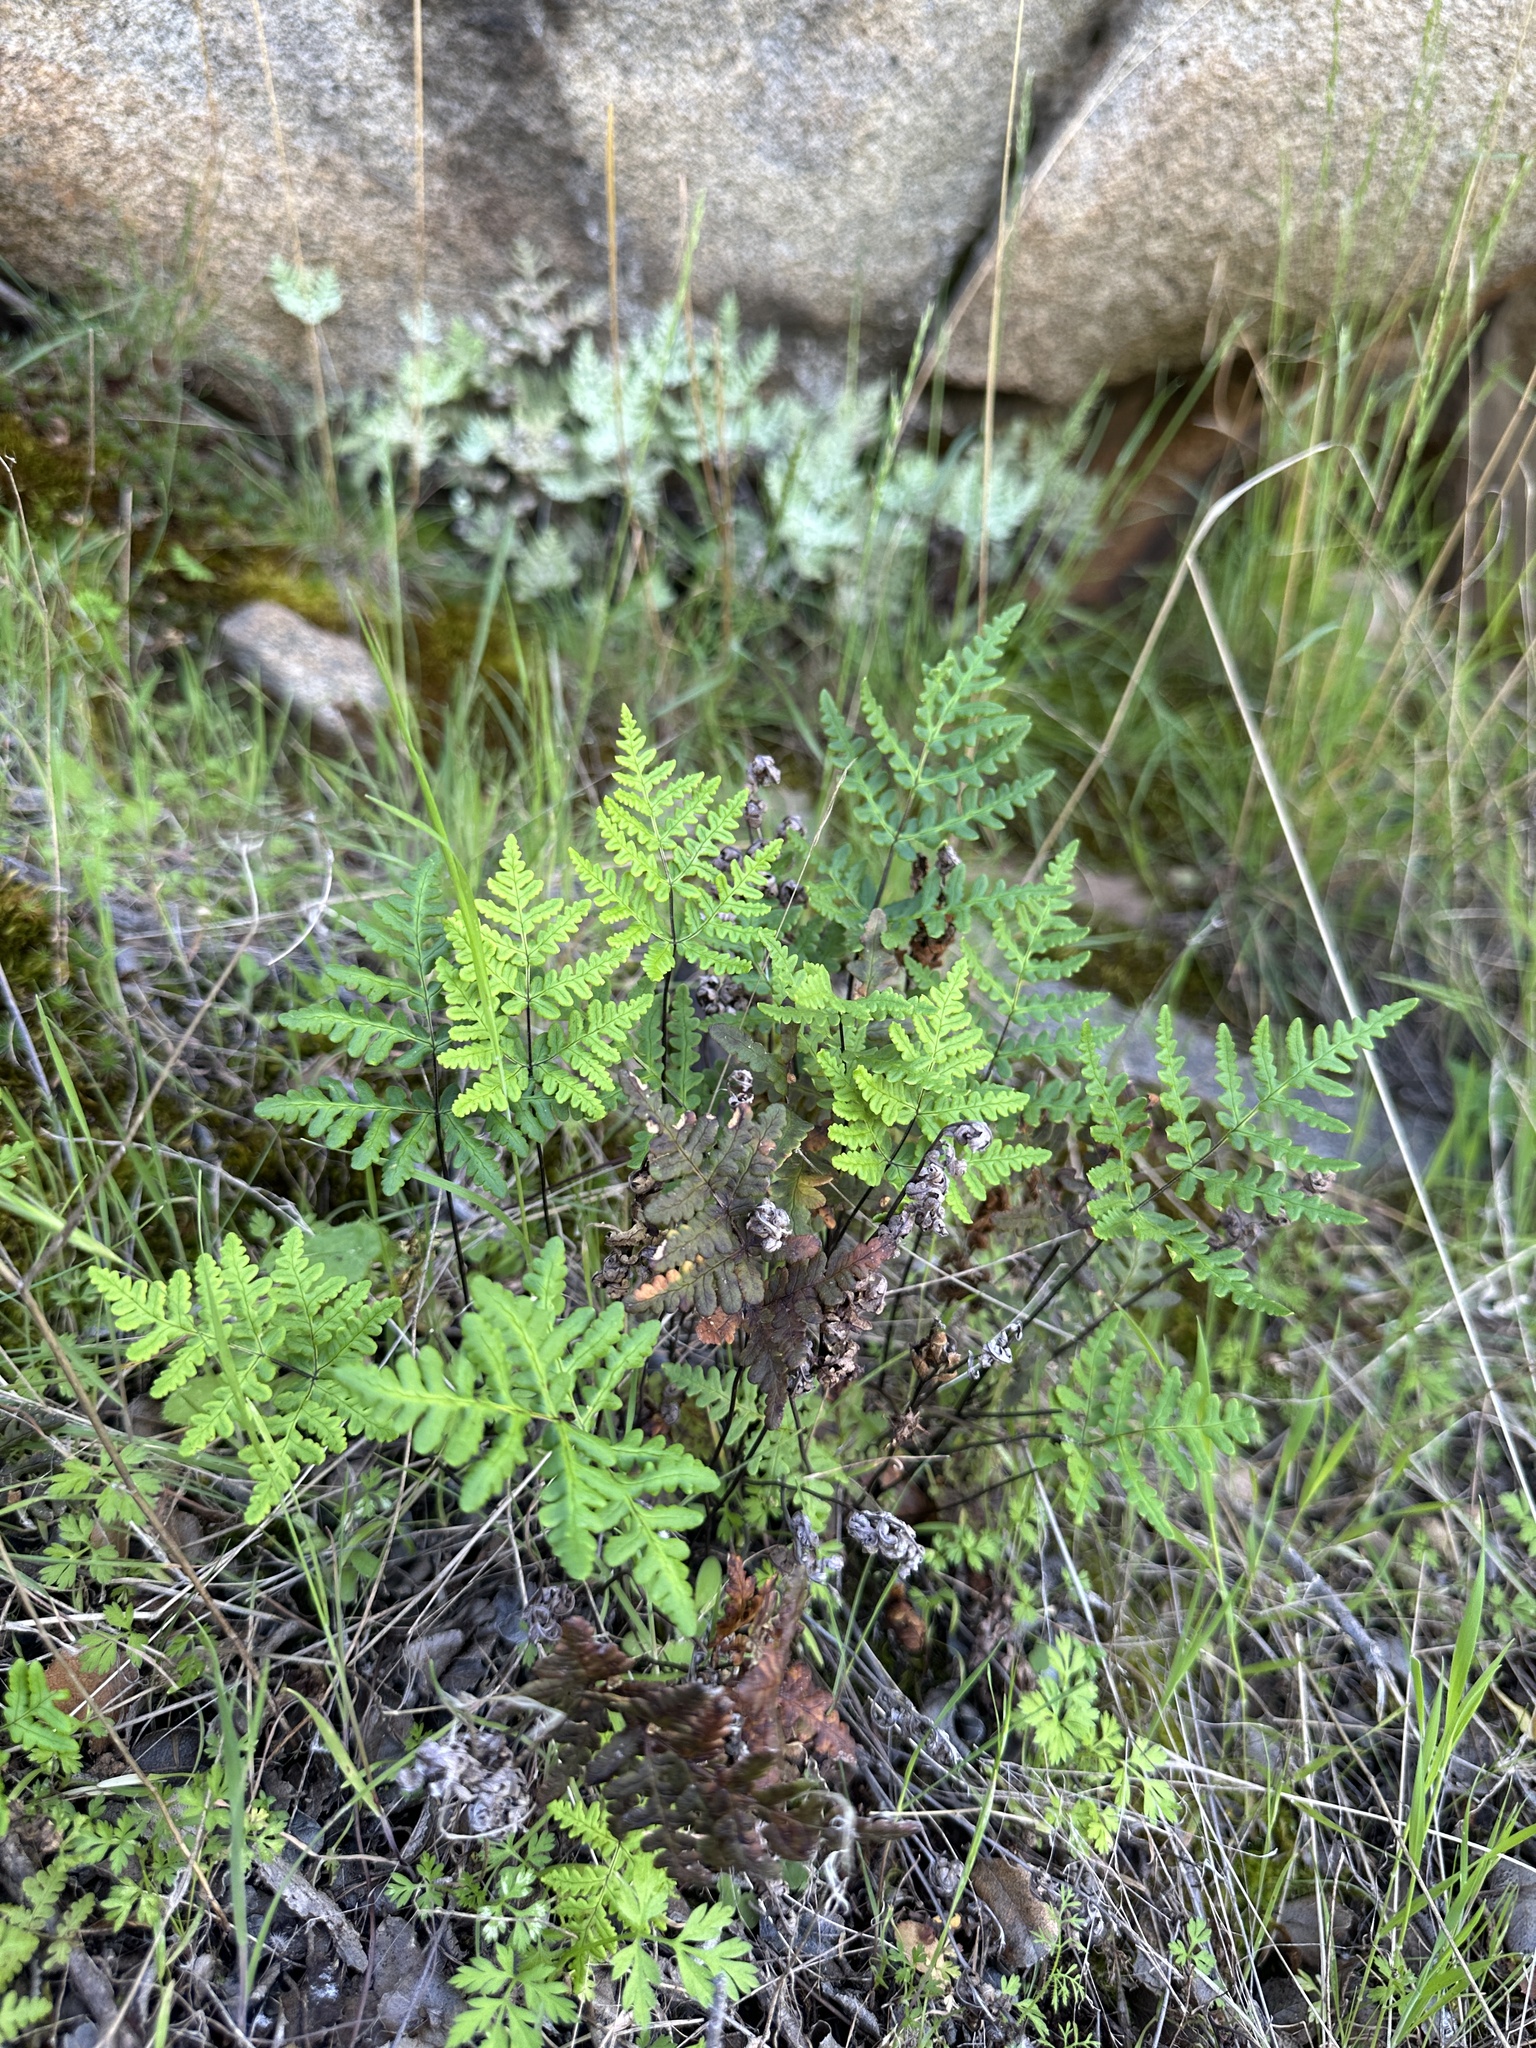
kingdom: Plantae
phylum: Tracheophyta
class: Polypodiopsida
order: Polypodiales
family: Pteridaceae
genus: Pentagramma
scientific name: Pentagramma triangularis
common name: Gold fern
